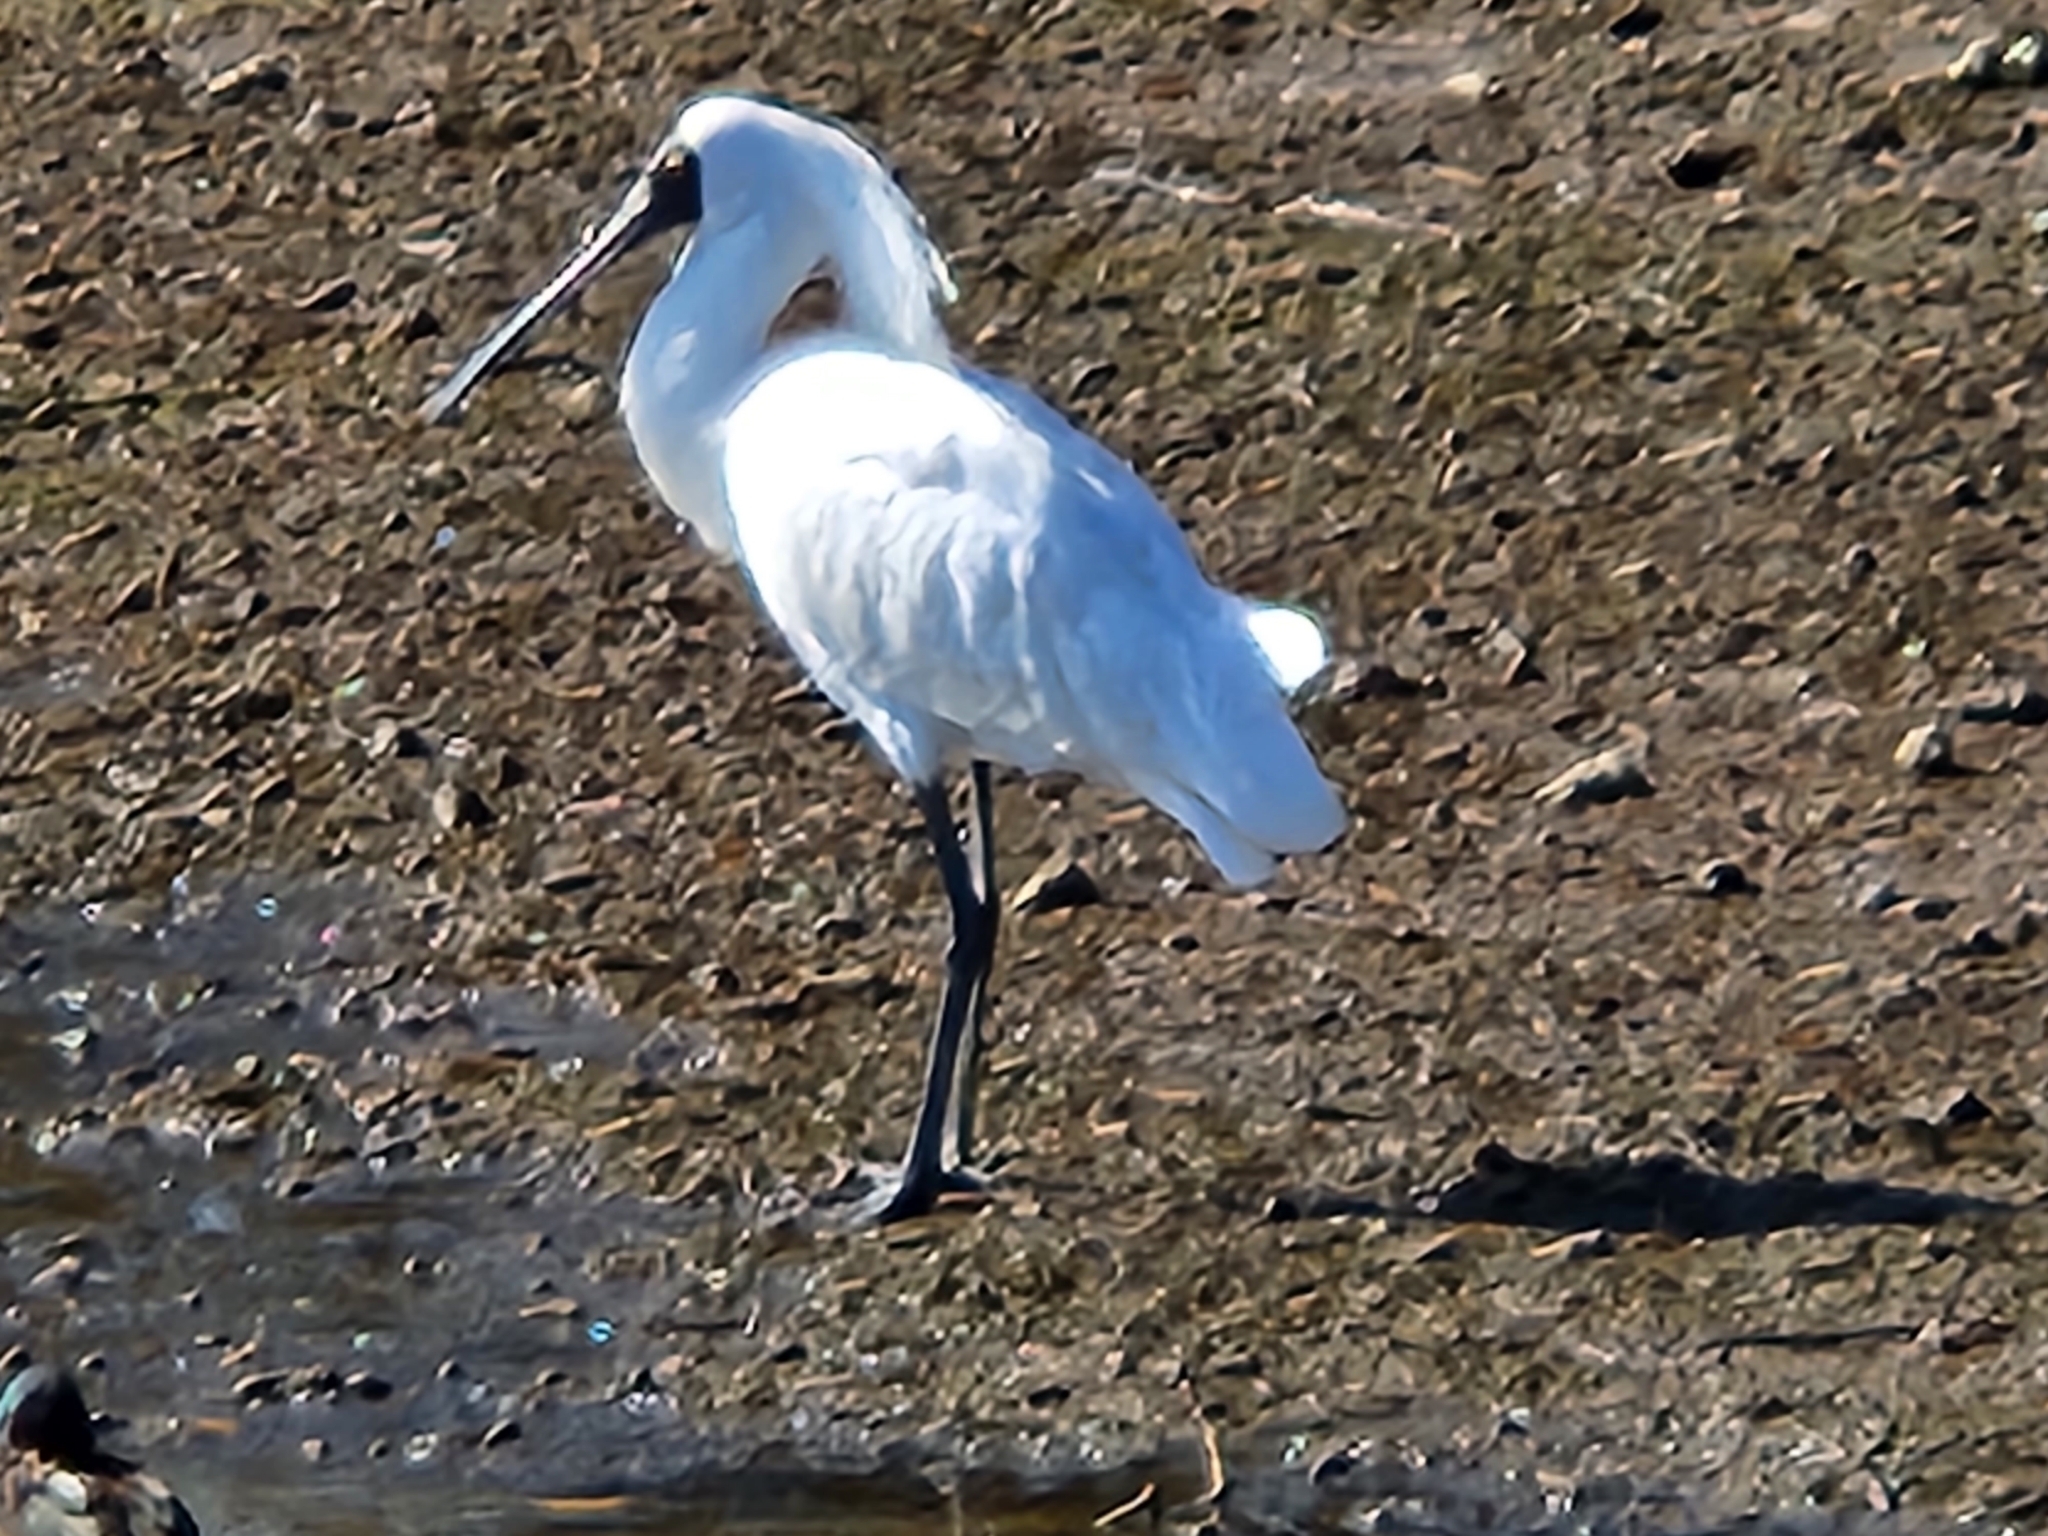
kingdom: Animalia
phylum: Chordata
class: Aves
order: Pelecaniformes
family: Threskiornithidae
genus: Platalea
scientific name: Platalea regia
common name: Royal spoonbill
